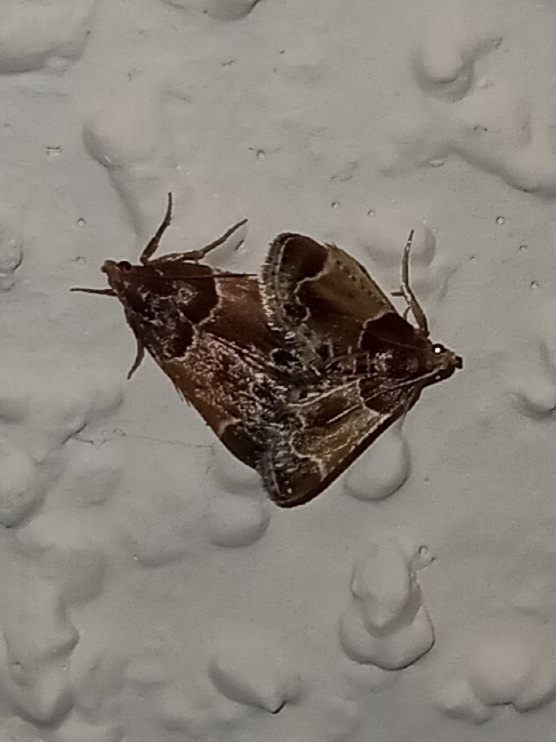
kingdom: Animalia
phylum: Arthropoda
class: Insecta
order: Lepidoptera
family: Pyralidae
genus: Pyralis
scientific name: Pyralis farinalis
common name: Meal moth
